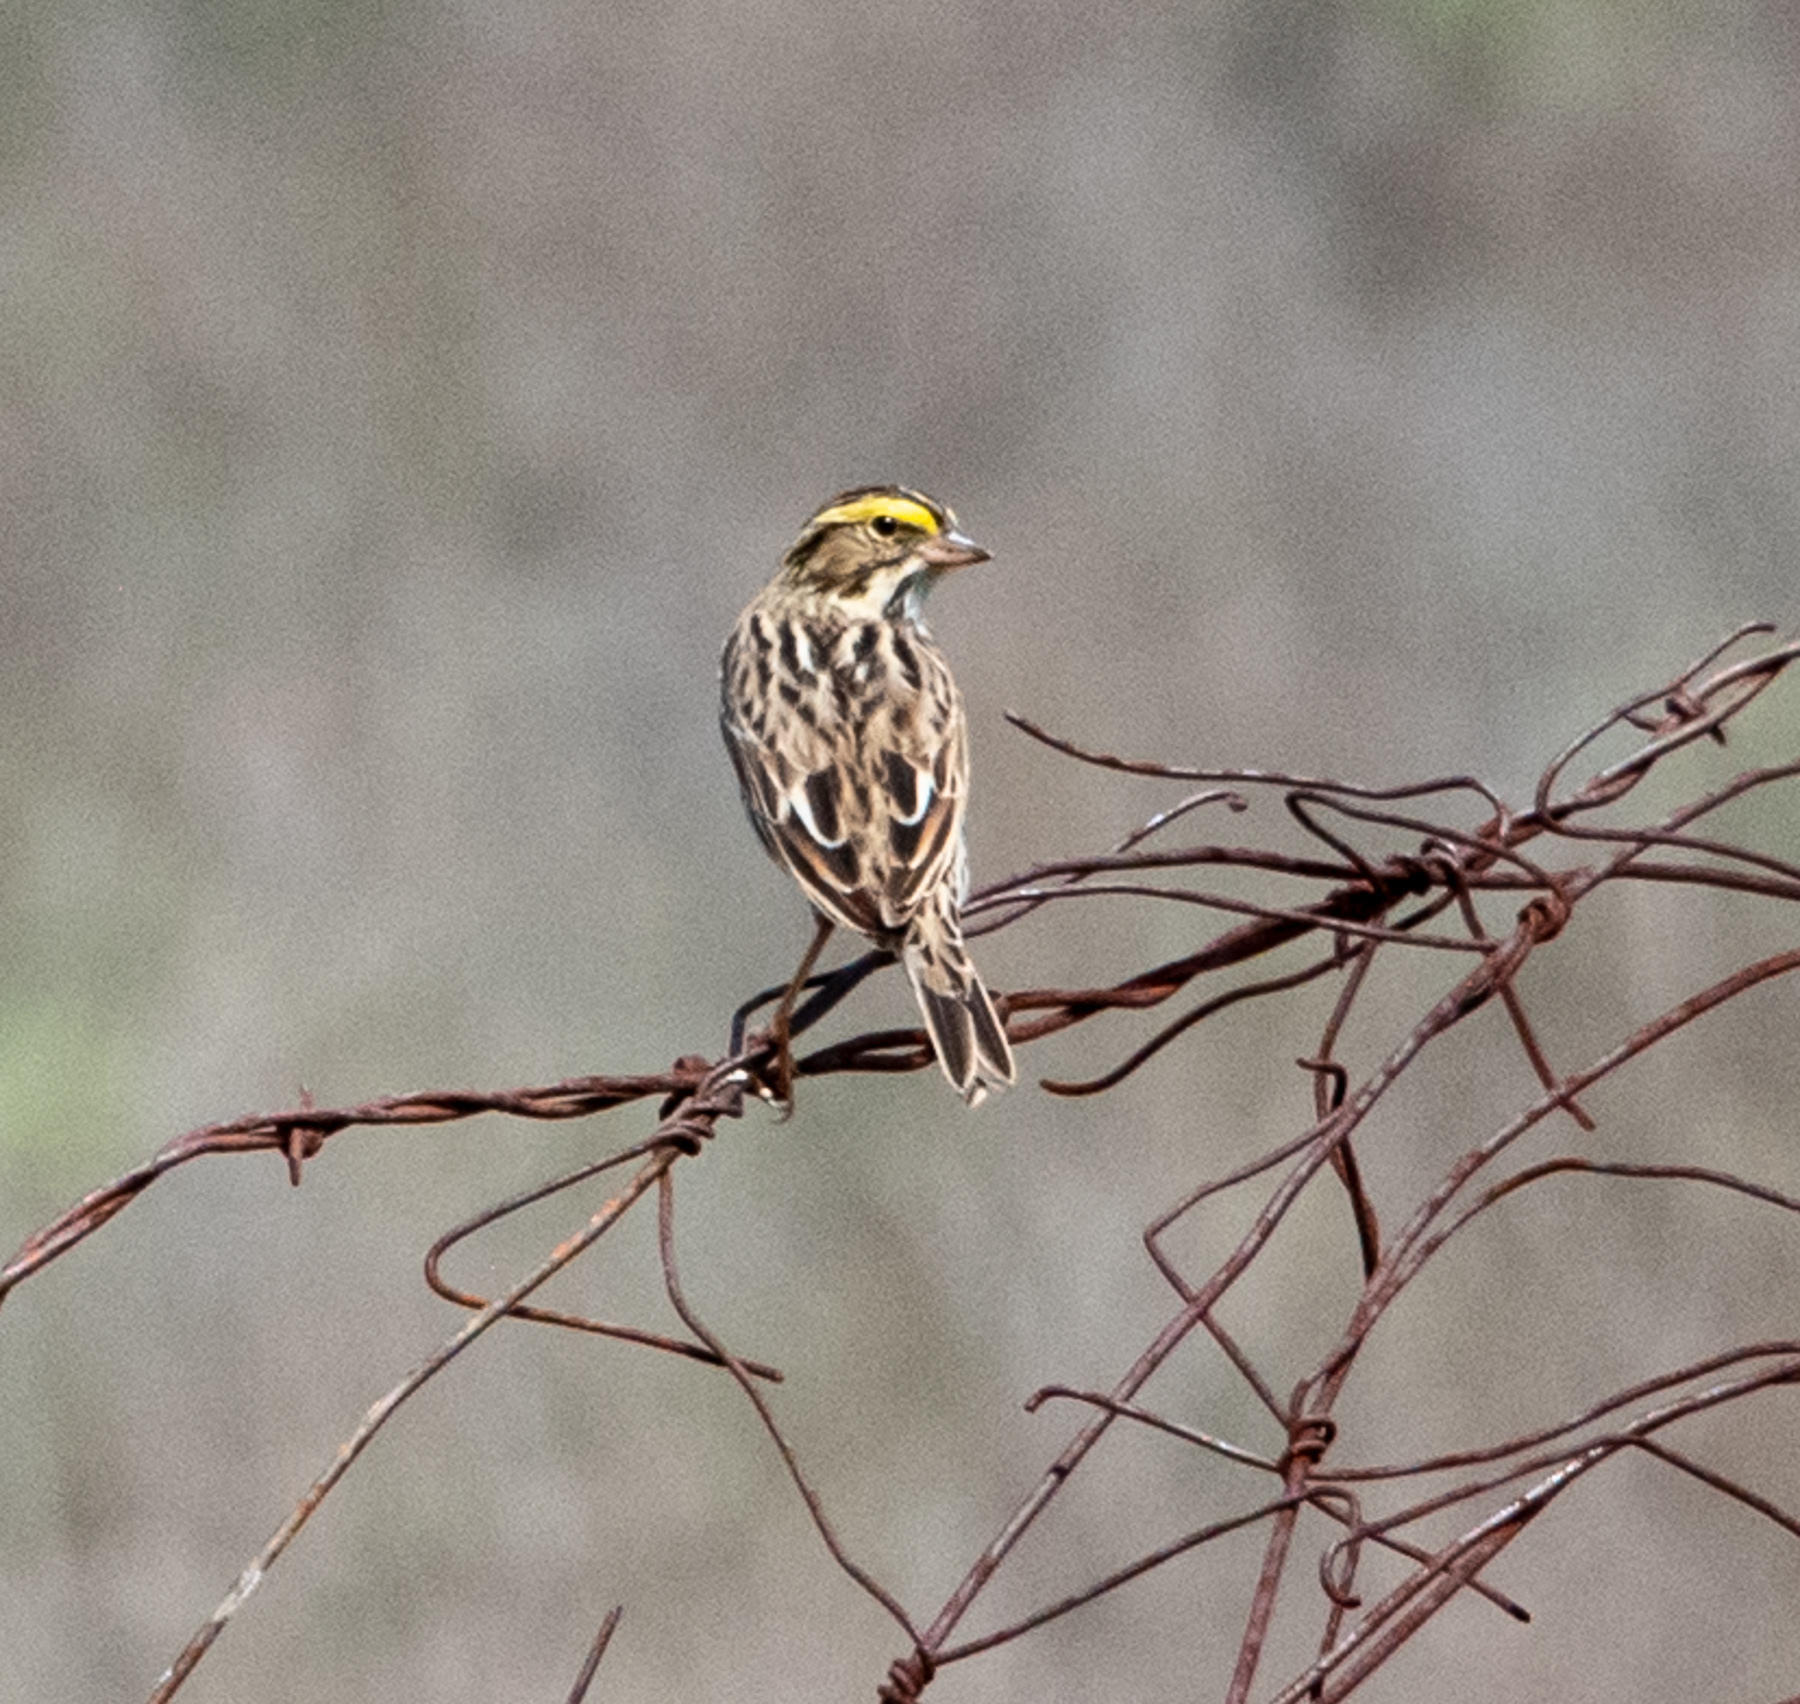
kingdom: Animalia
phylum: Chordata
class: Aves
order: Passeriformes
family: Passerellidae
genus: Passerculus
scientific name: Passerculus sandwichensis
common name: Savannah sparrow
